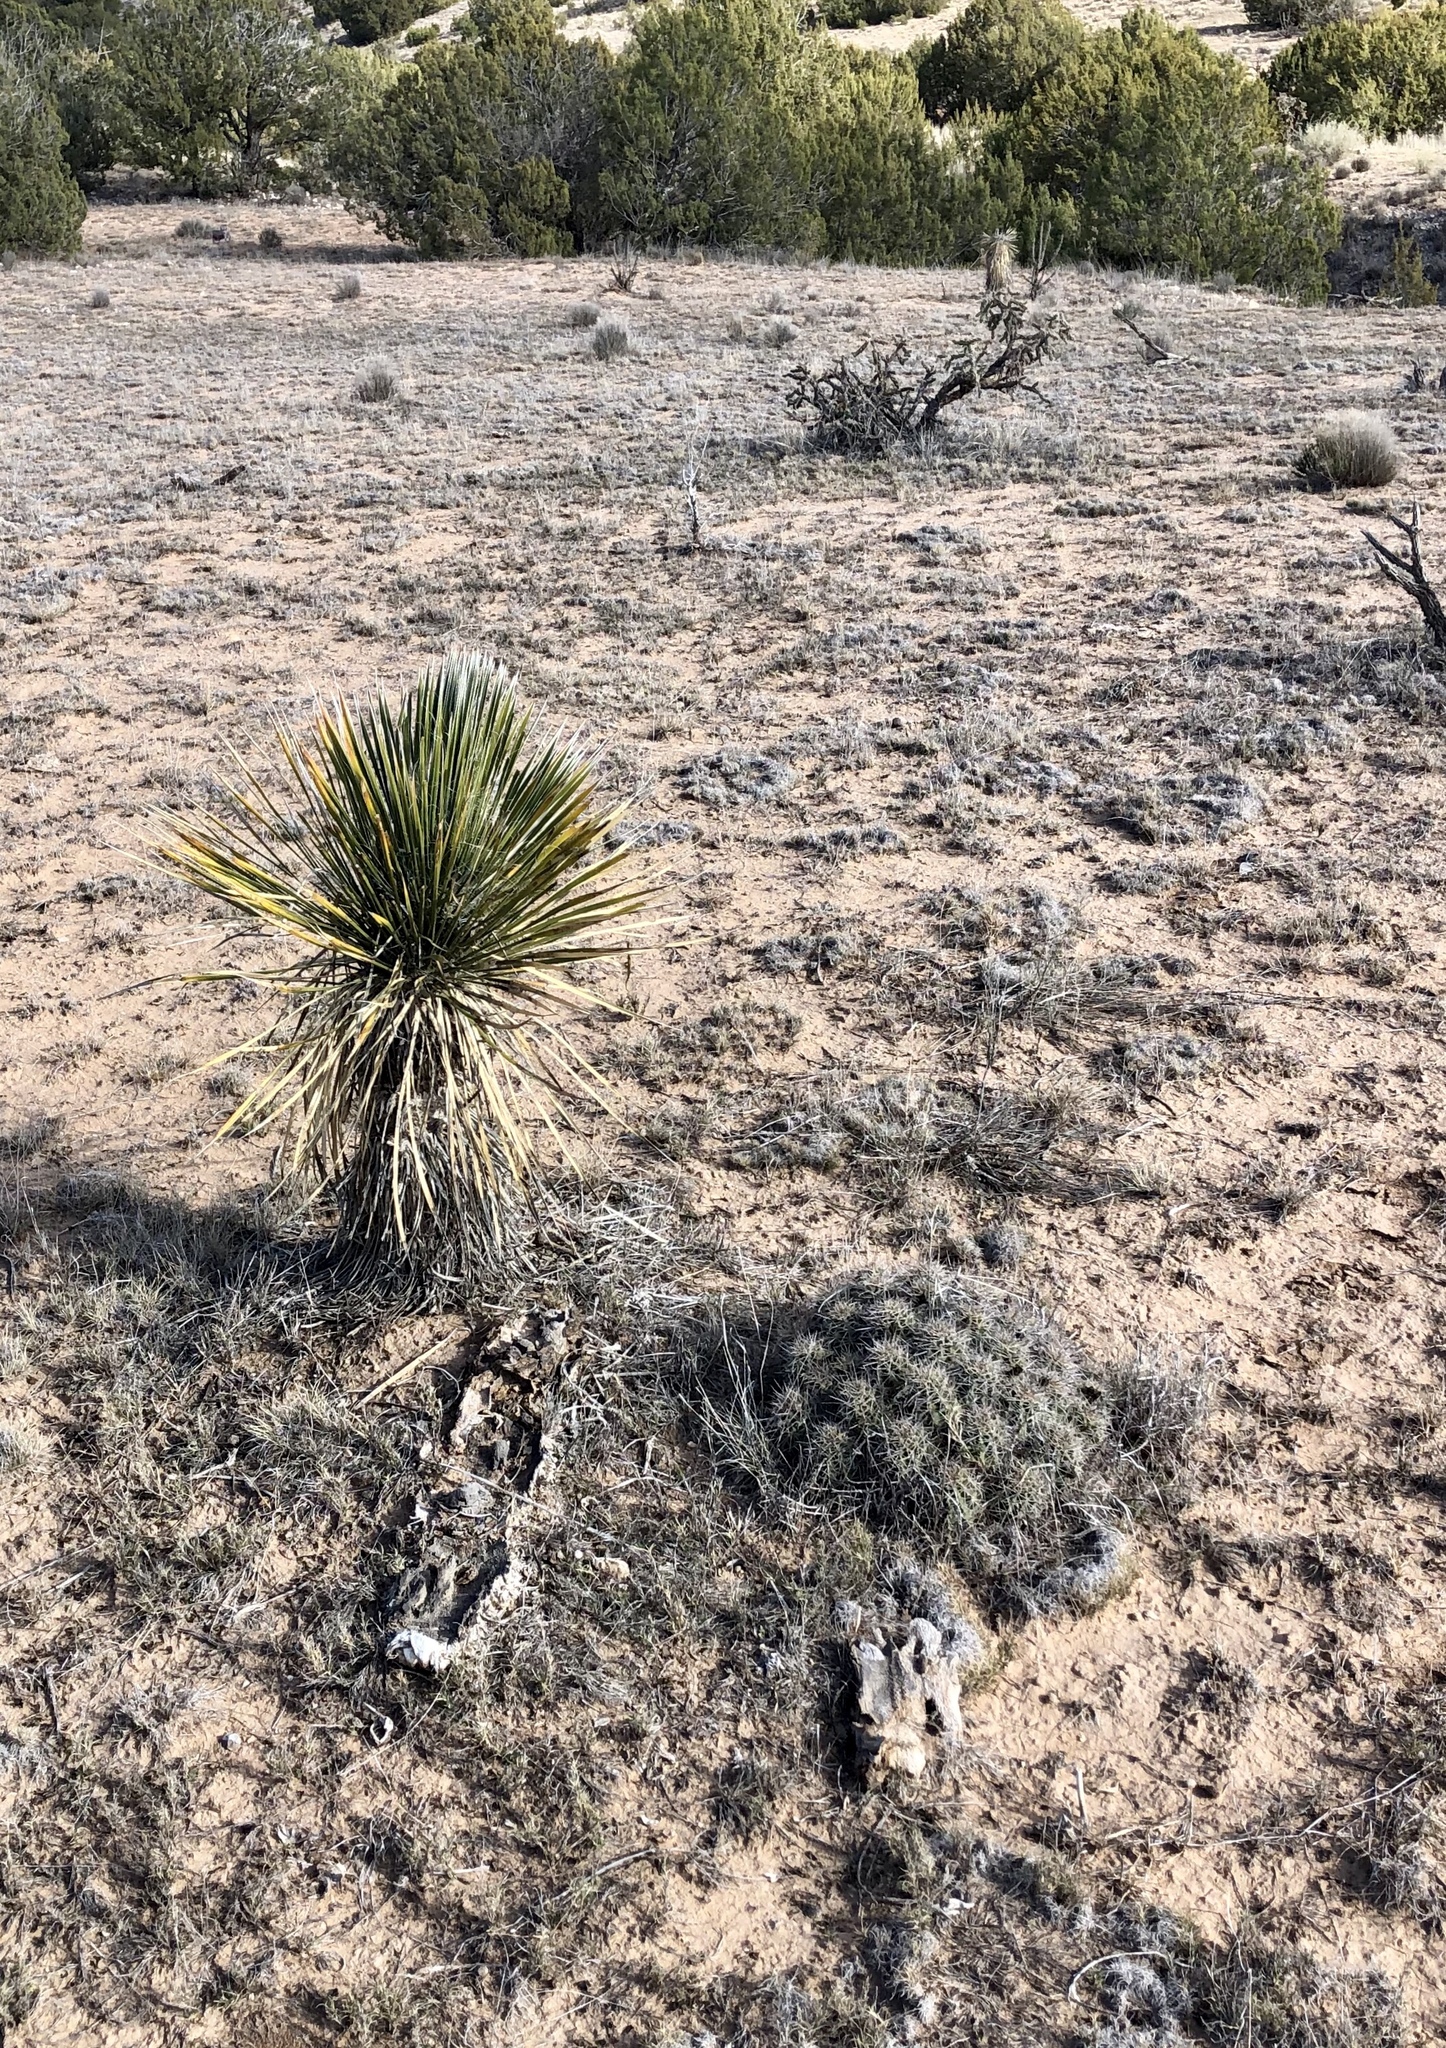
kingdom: Plantae
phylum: Tracheophyta
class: Liliopsida
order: Asparagales
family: Asparagaceae
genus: Yucca
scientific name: Yucca elata
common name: Palmella
